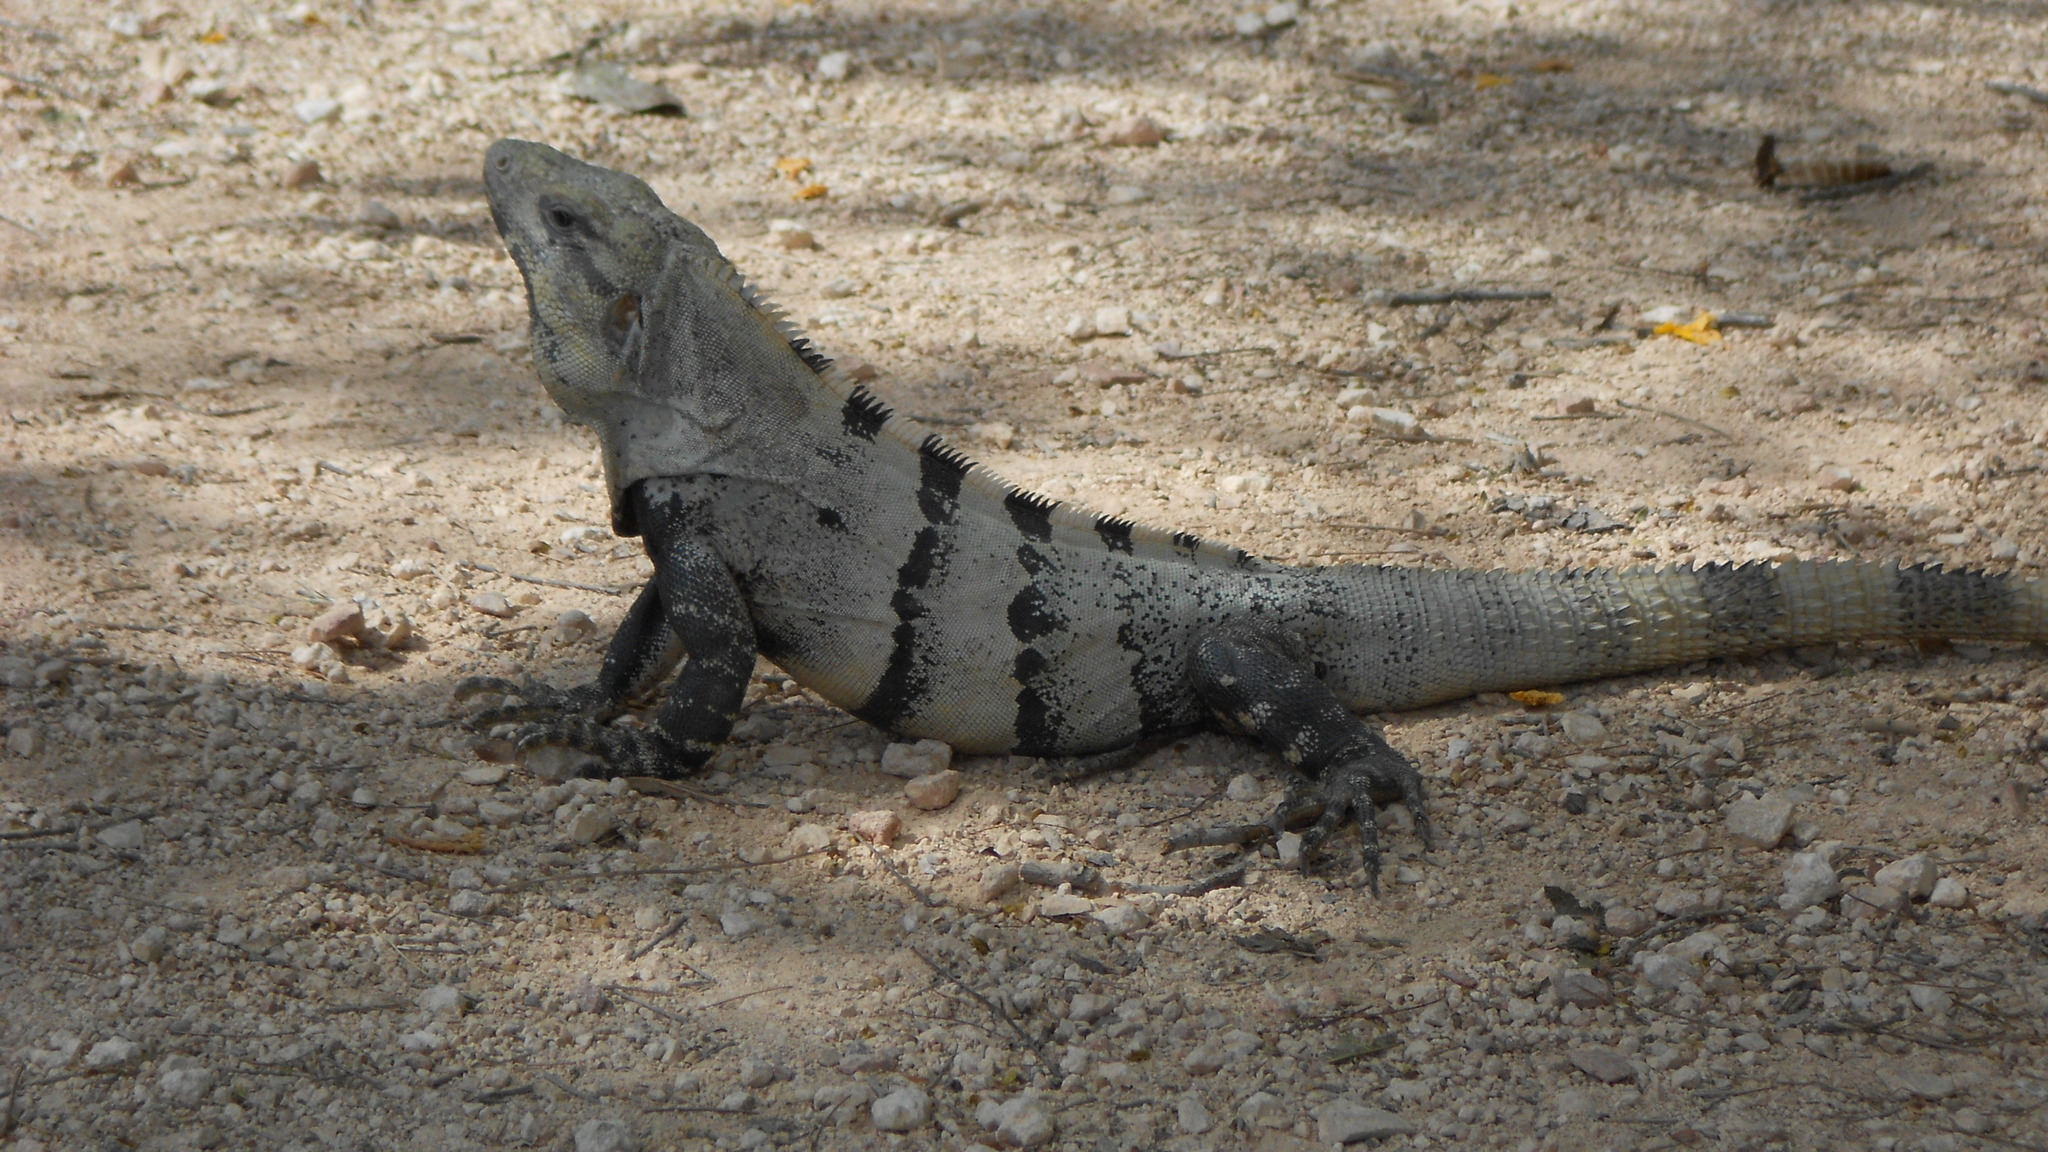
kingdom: Animalia
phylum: Chordata
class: Squamata
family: Iguanidae
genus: Ctenosaura
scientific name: Ctenosaura similis
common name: Black spiny-tailed iguana
